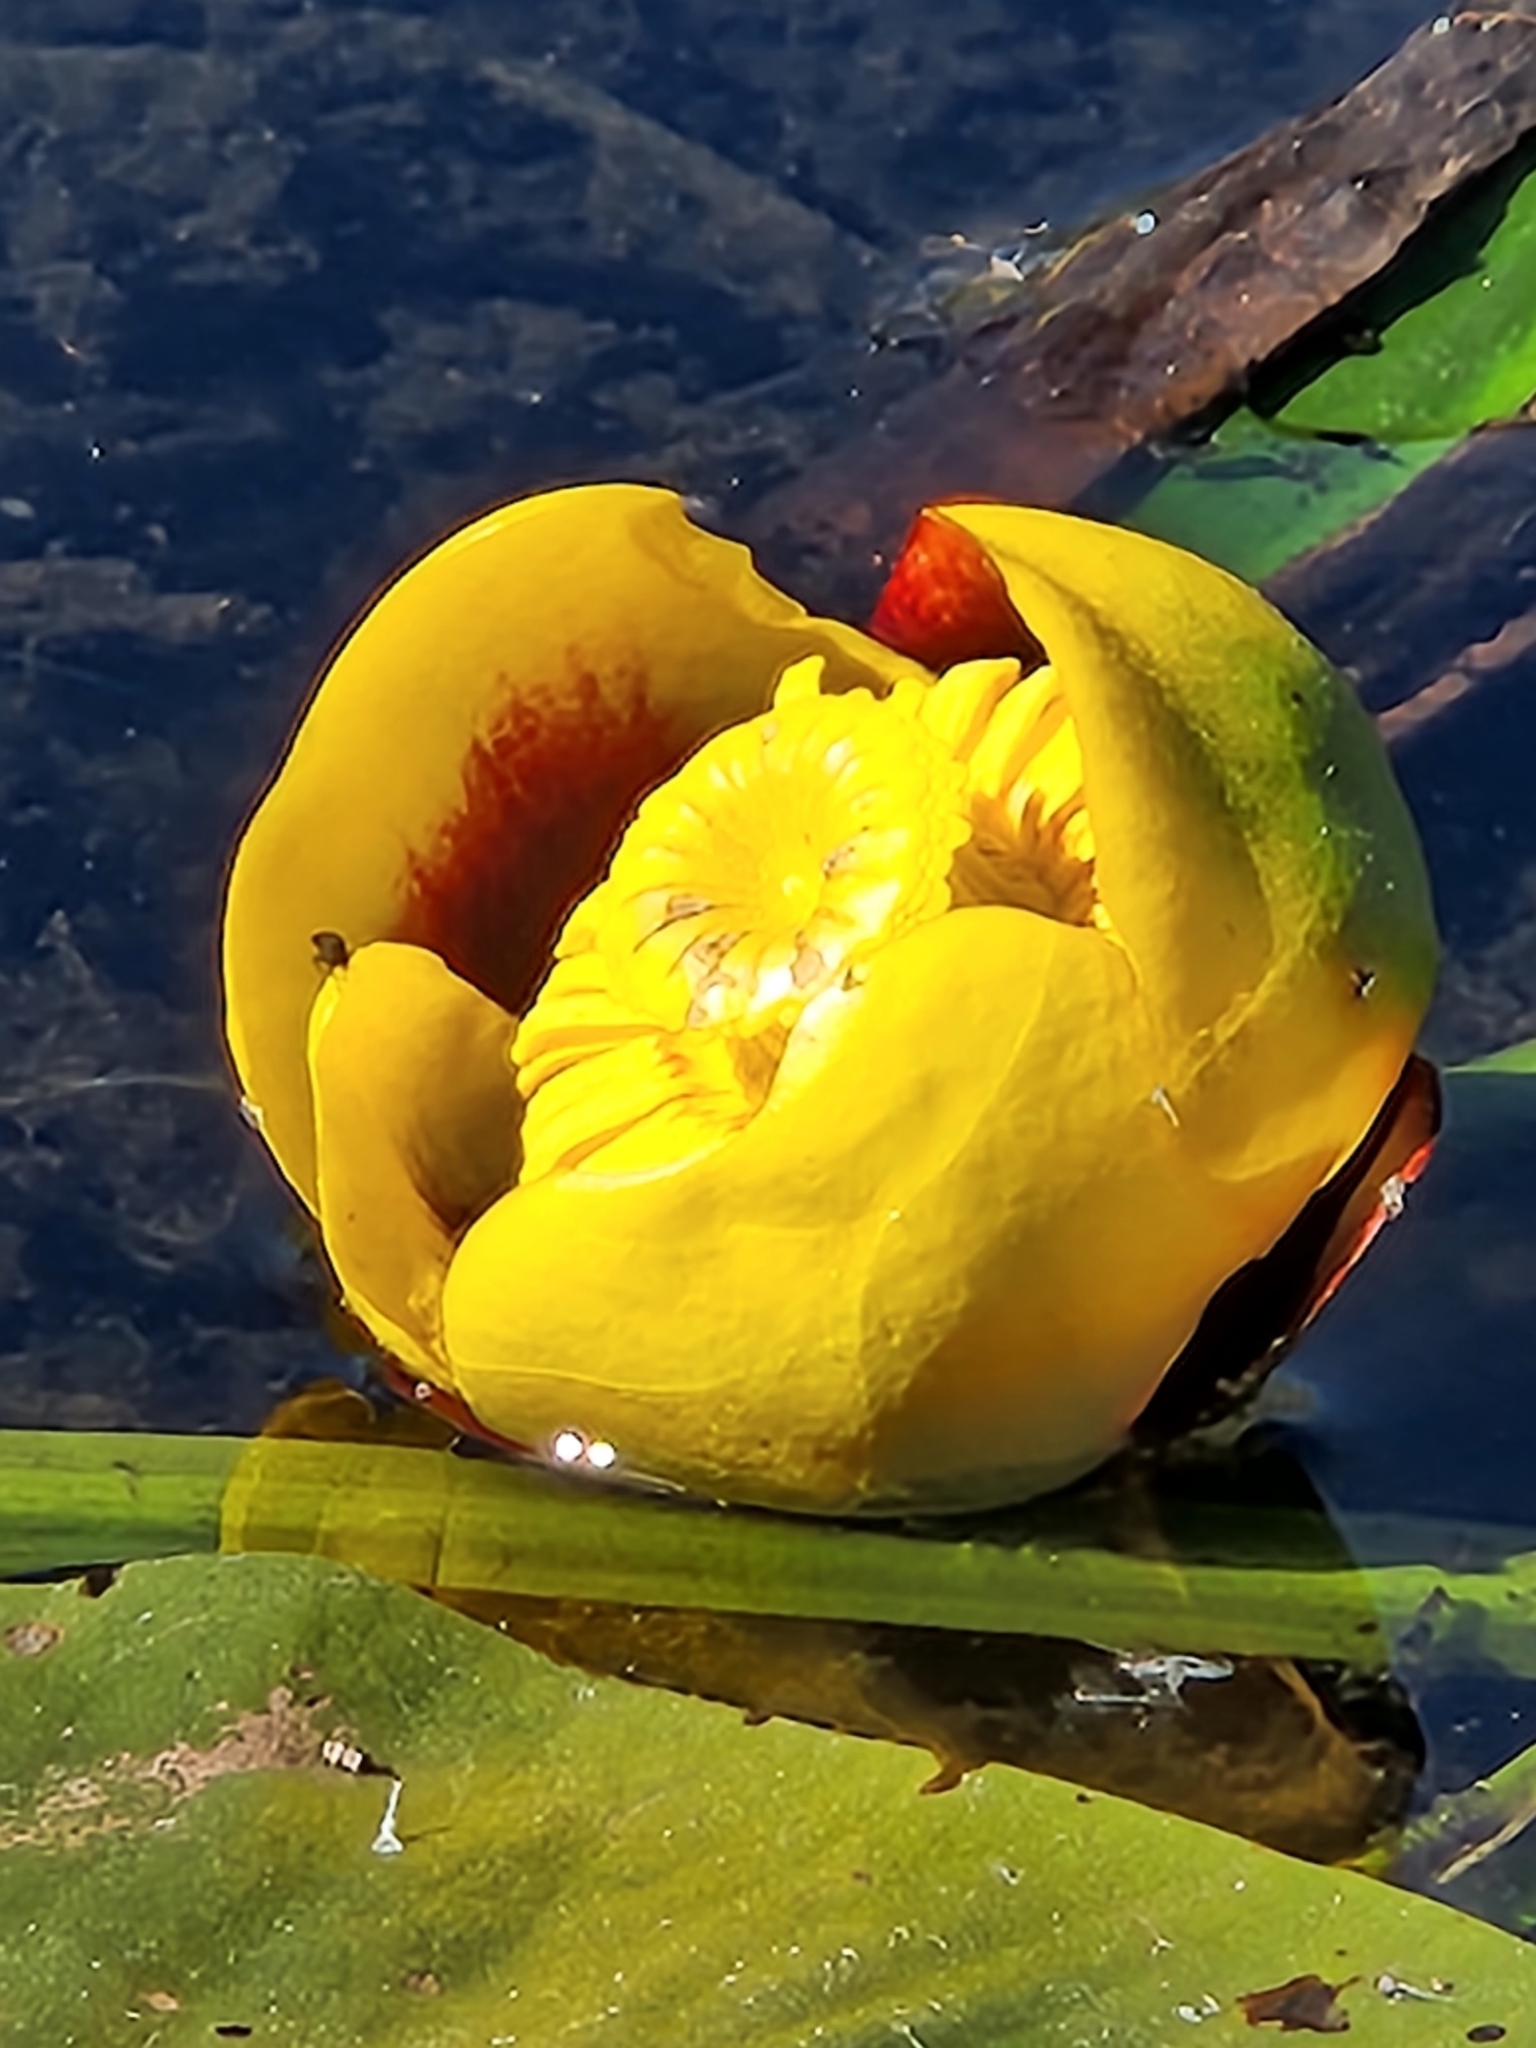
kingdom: Plantae
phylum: Tracheophyta
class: Magnoliopsida
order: Nymphaeales
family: Nymphaeaceae
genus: Nuphar
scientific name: Nuphar polysepala
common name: Rocky mountain cow-lily
